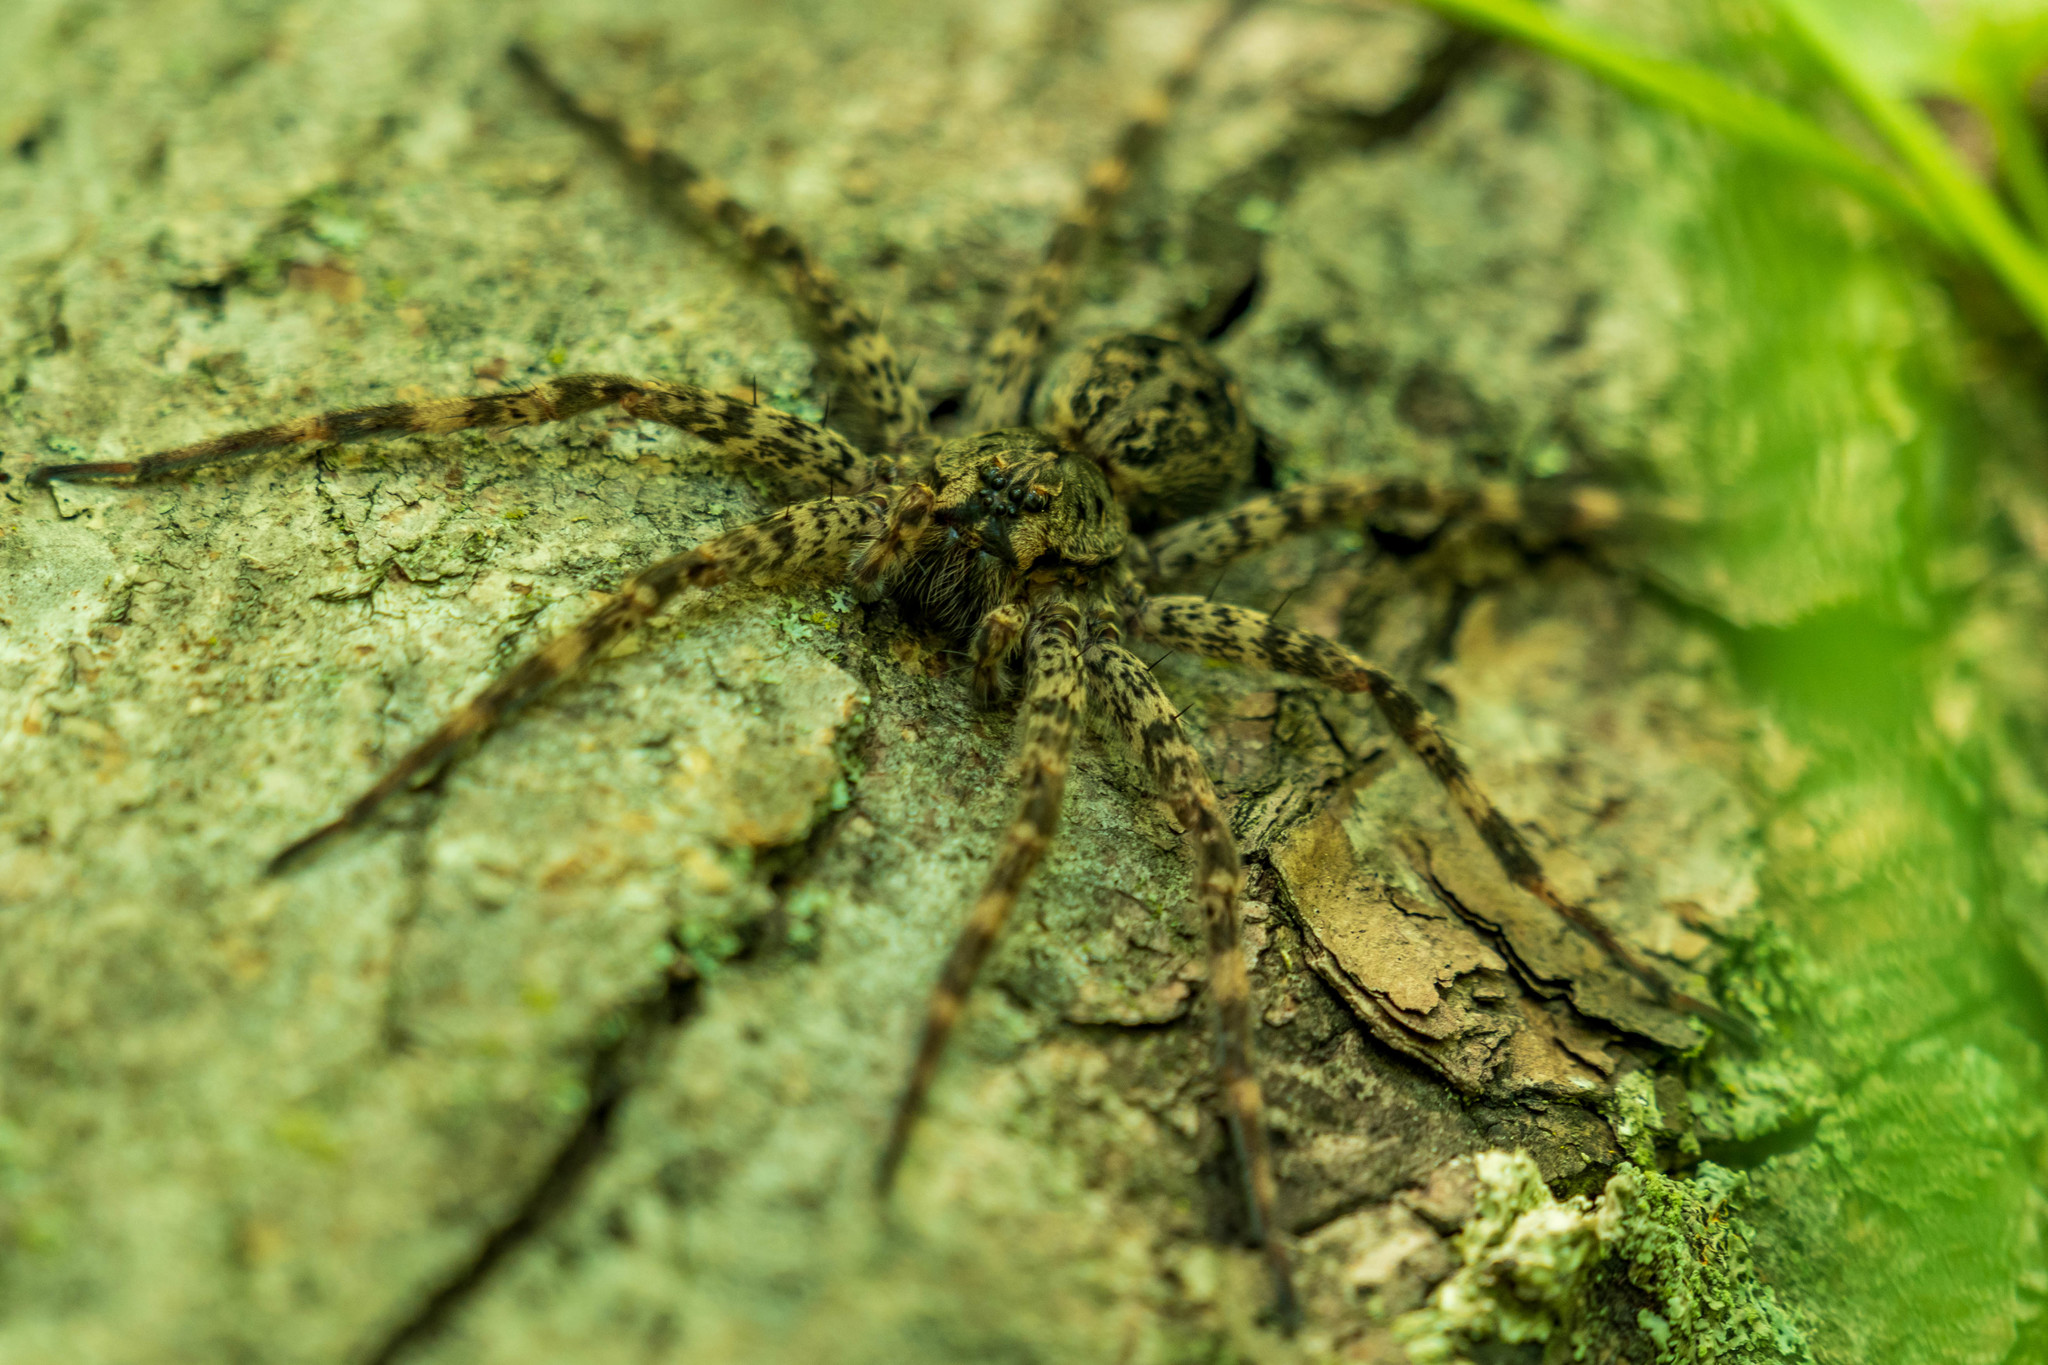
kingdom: Animalia
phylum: Arthropoda
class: Arachnida
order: Araneae
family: Pisauridae
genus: Dolomedes
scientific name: Dolomedes tenebrosus
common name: Dark fishing spider
